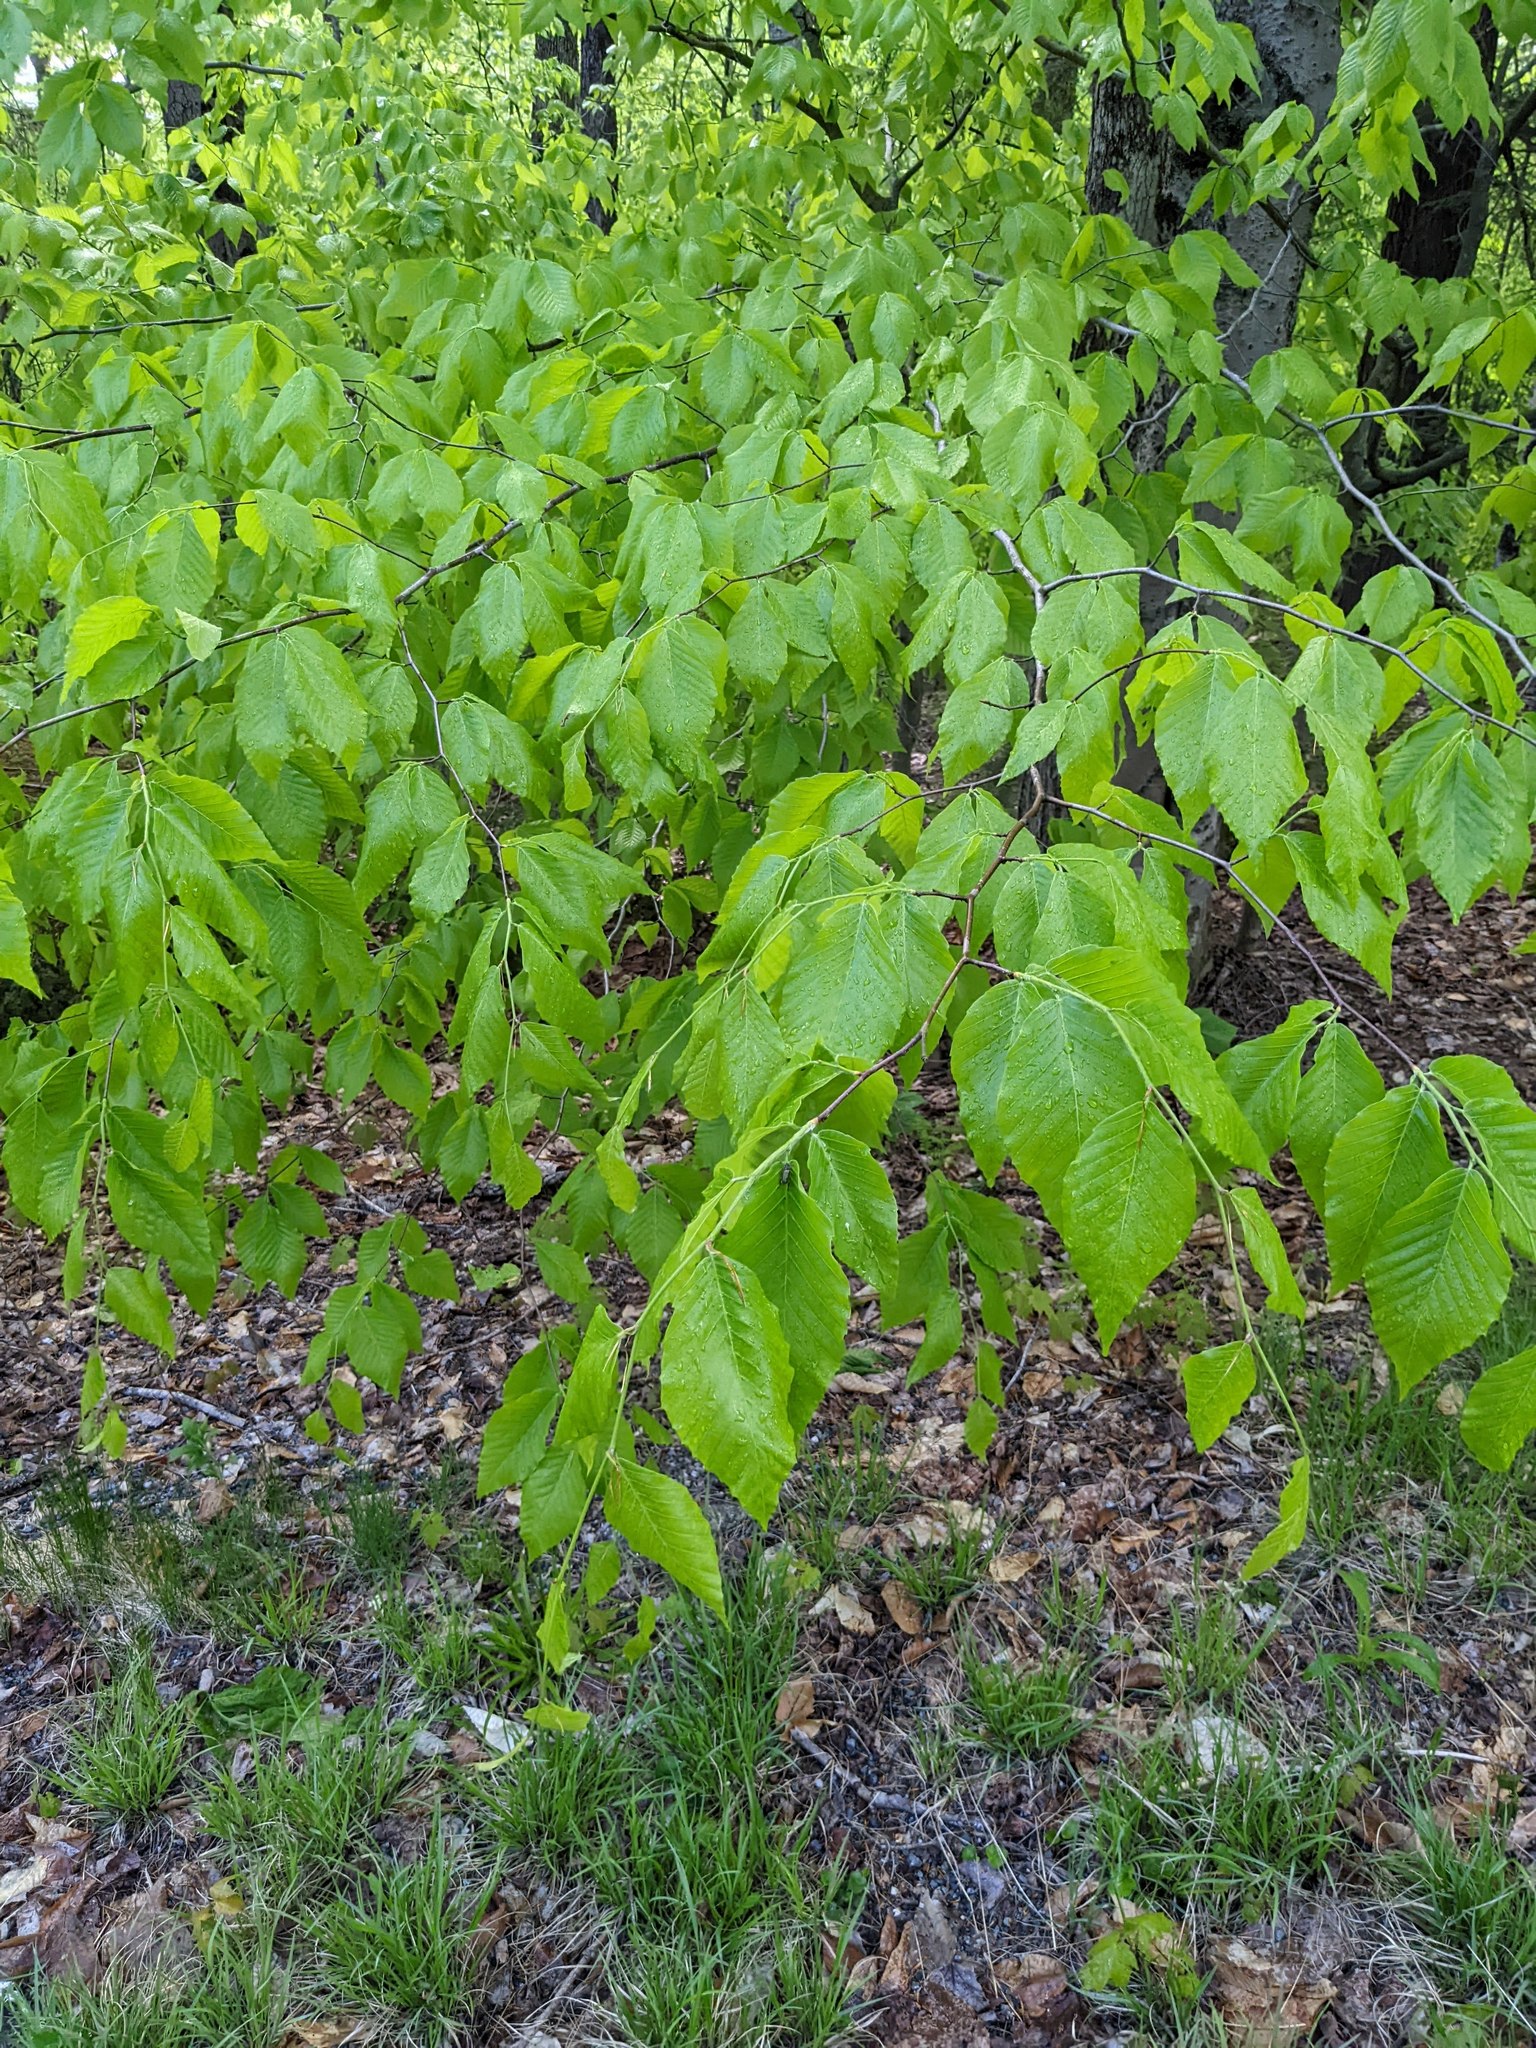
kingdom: Plantae
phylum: Tracheophyta
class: Magnoliopsida
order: Fagales
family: Fagaceae
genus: Fagus
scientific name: Fagus grandifolia
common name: American beech
